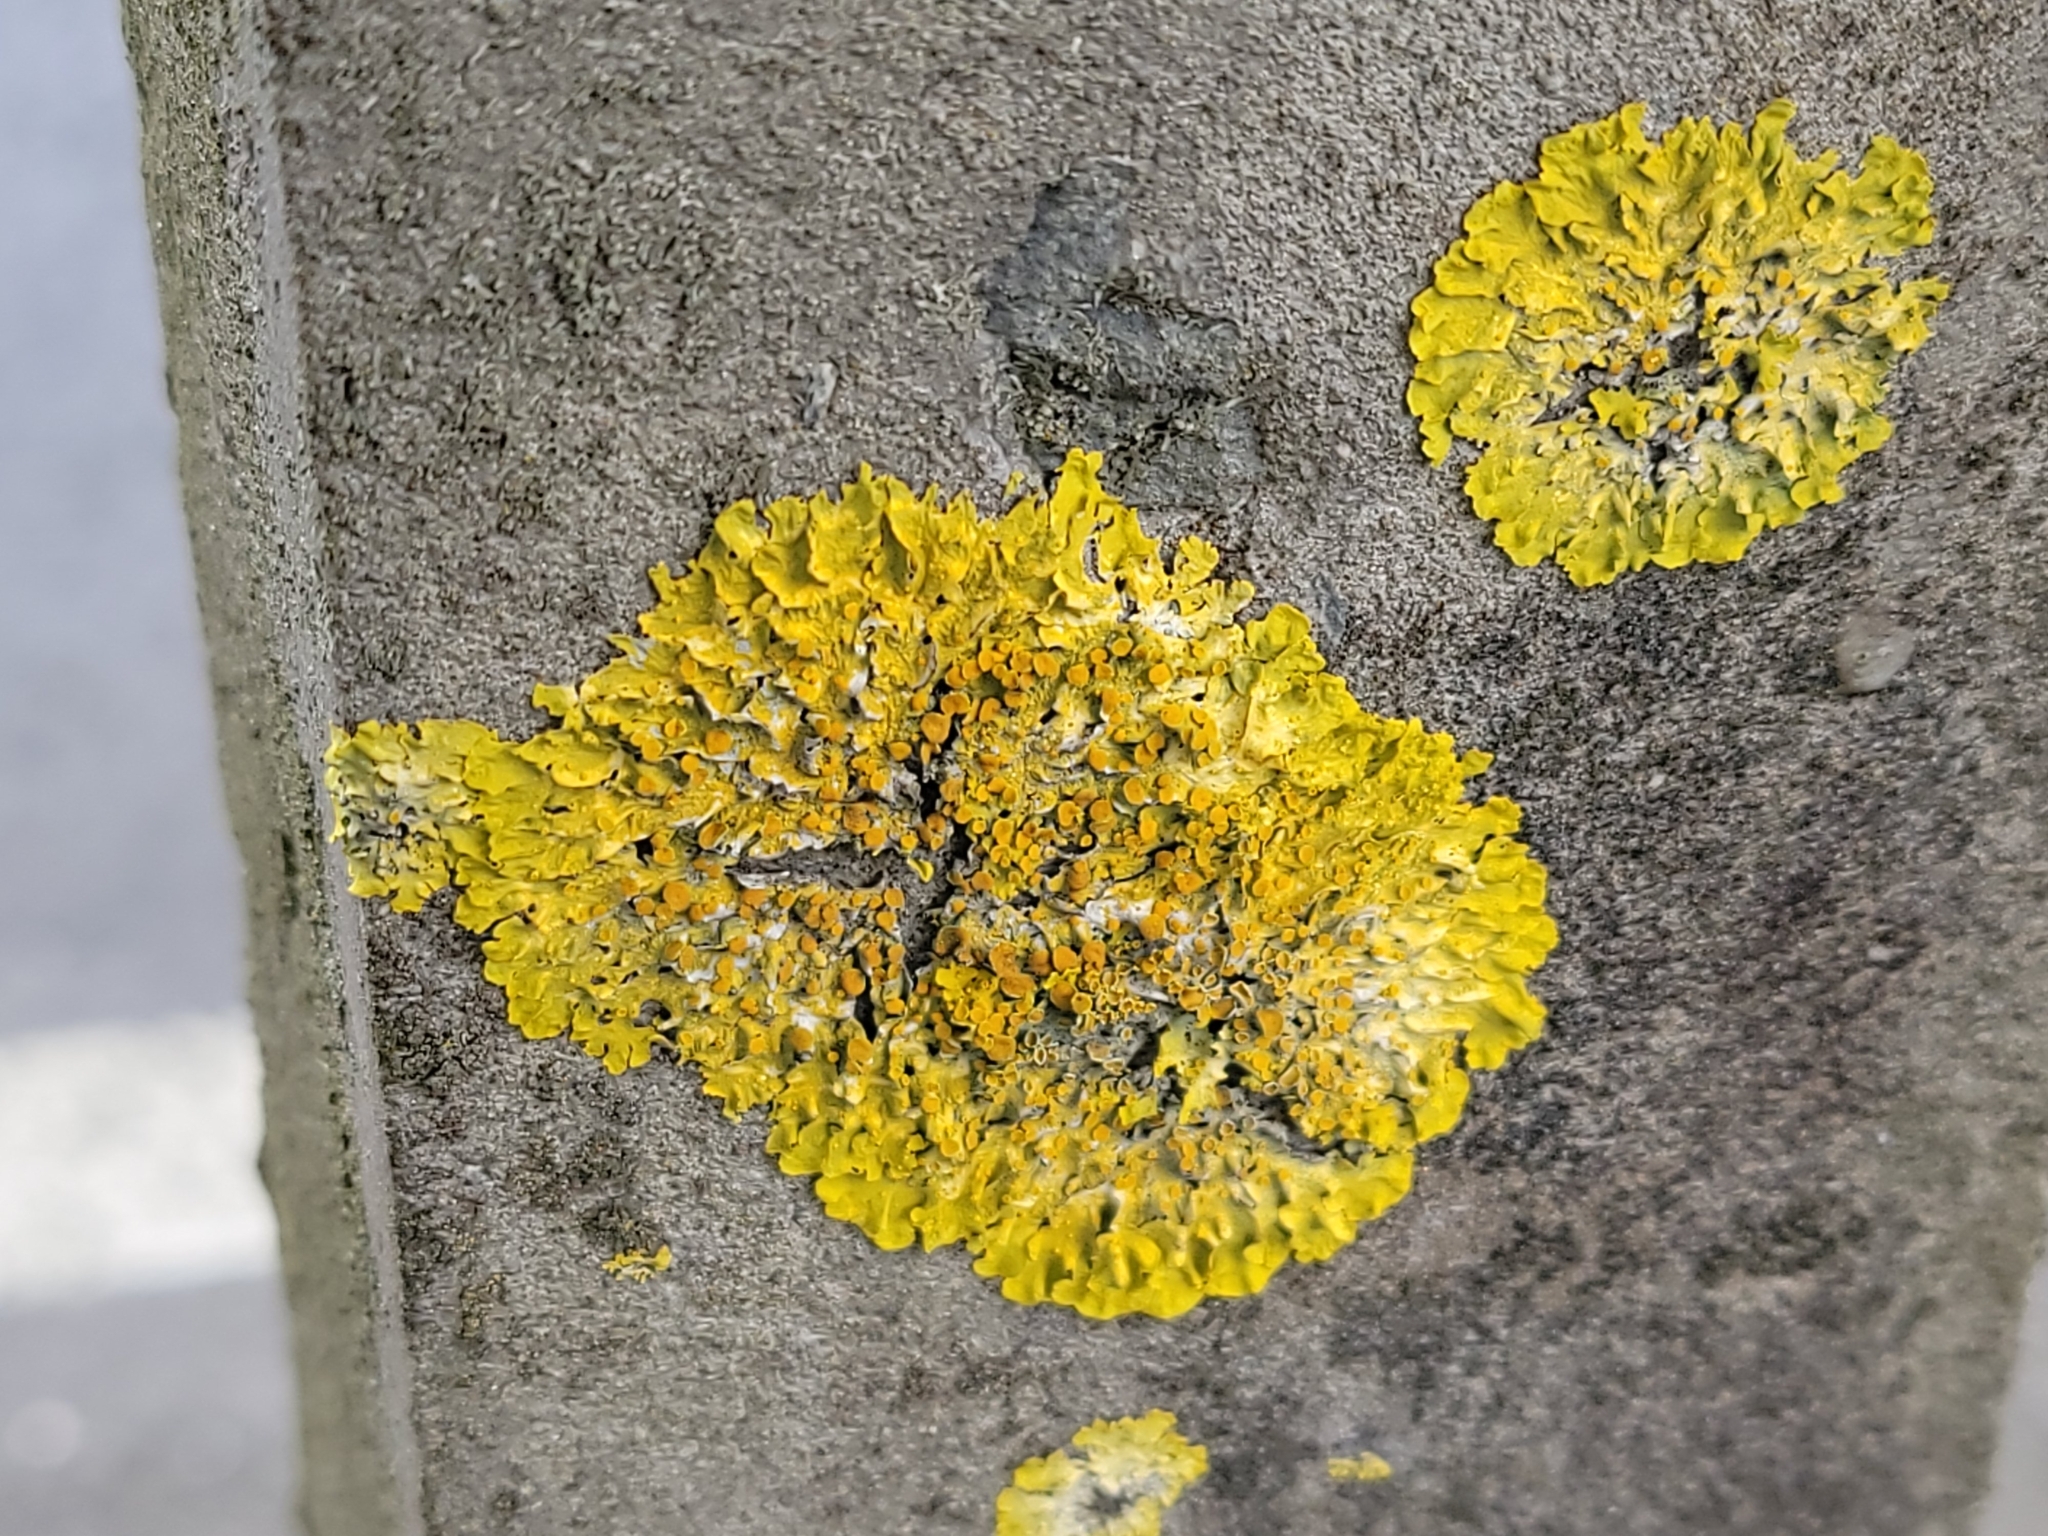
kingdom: Fungi
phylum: Ascomycota
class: Lecanoromycetes
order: Teloschistales
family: Teloschistaceae
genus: Xanthoria
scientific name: Xanthoria parietina
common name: Common orange lichen
